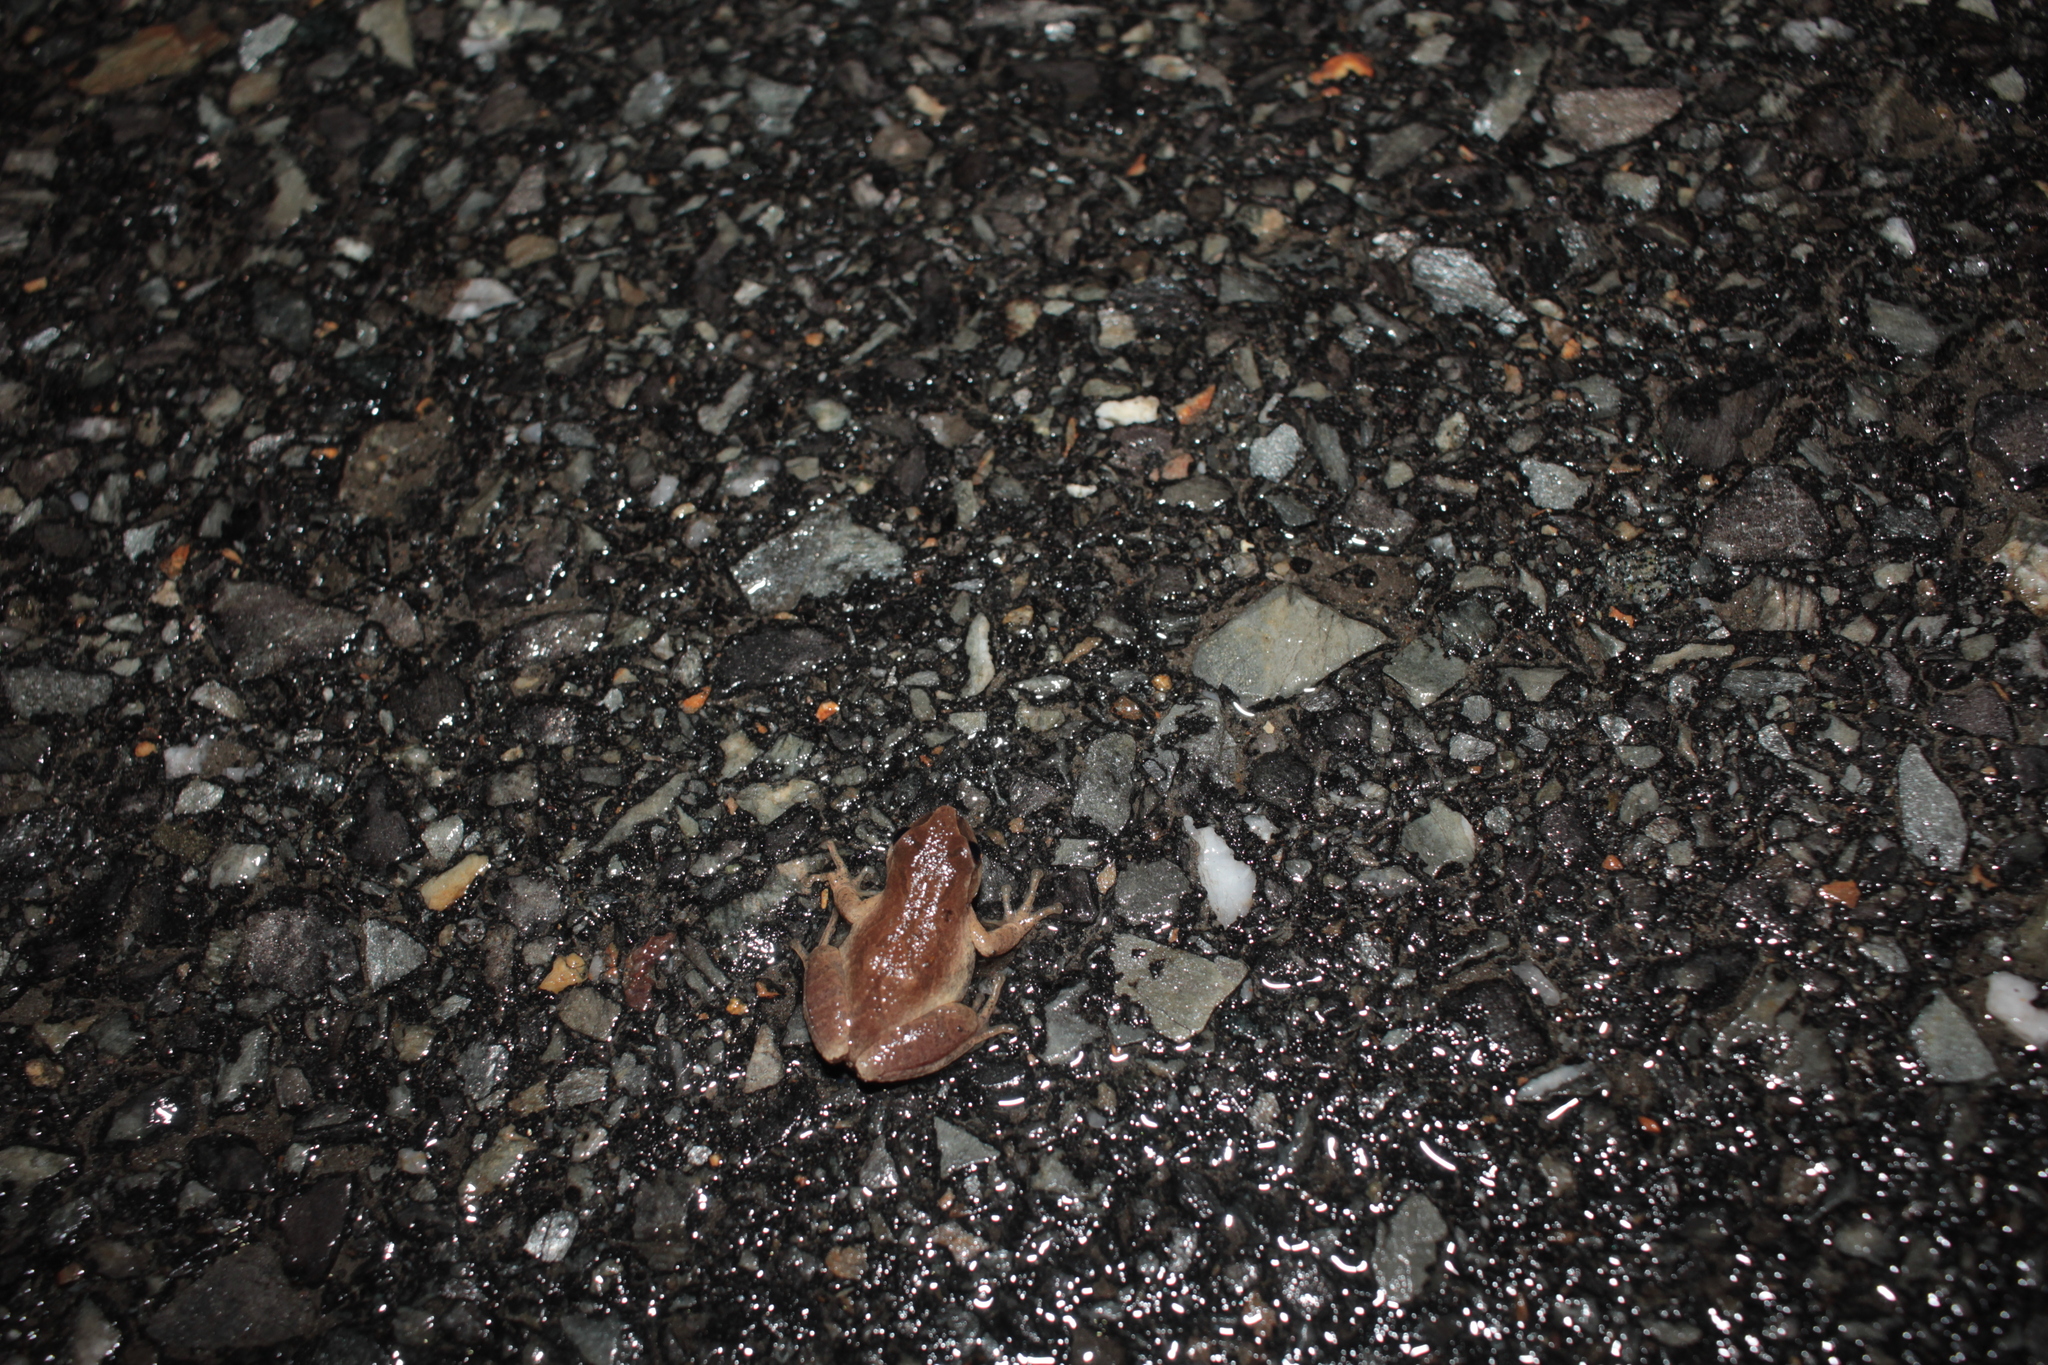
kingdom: Animalia
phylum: Chordata
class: Amphibia
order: Anura
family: Hylidae
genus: Pseudacris
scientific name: Pseudacris crucifer
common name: Spring peeper
